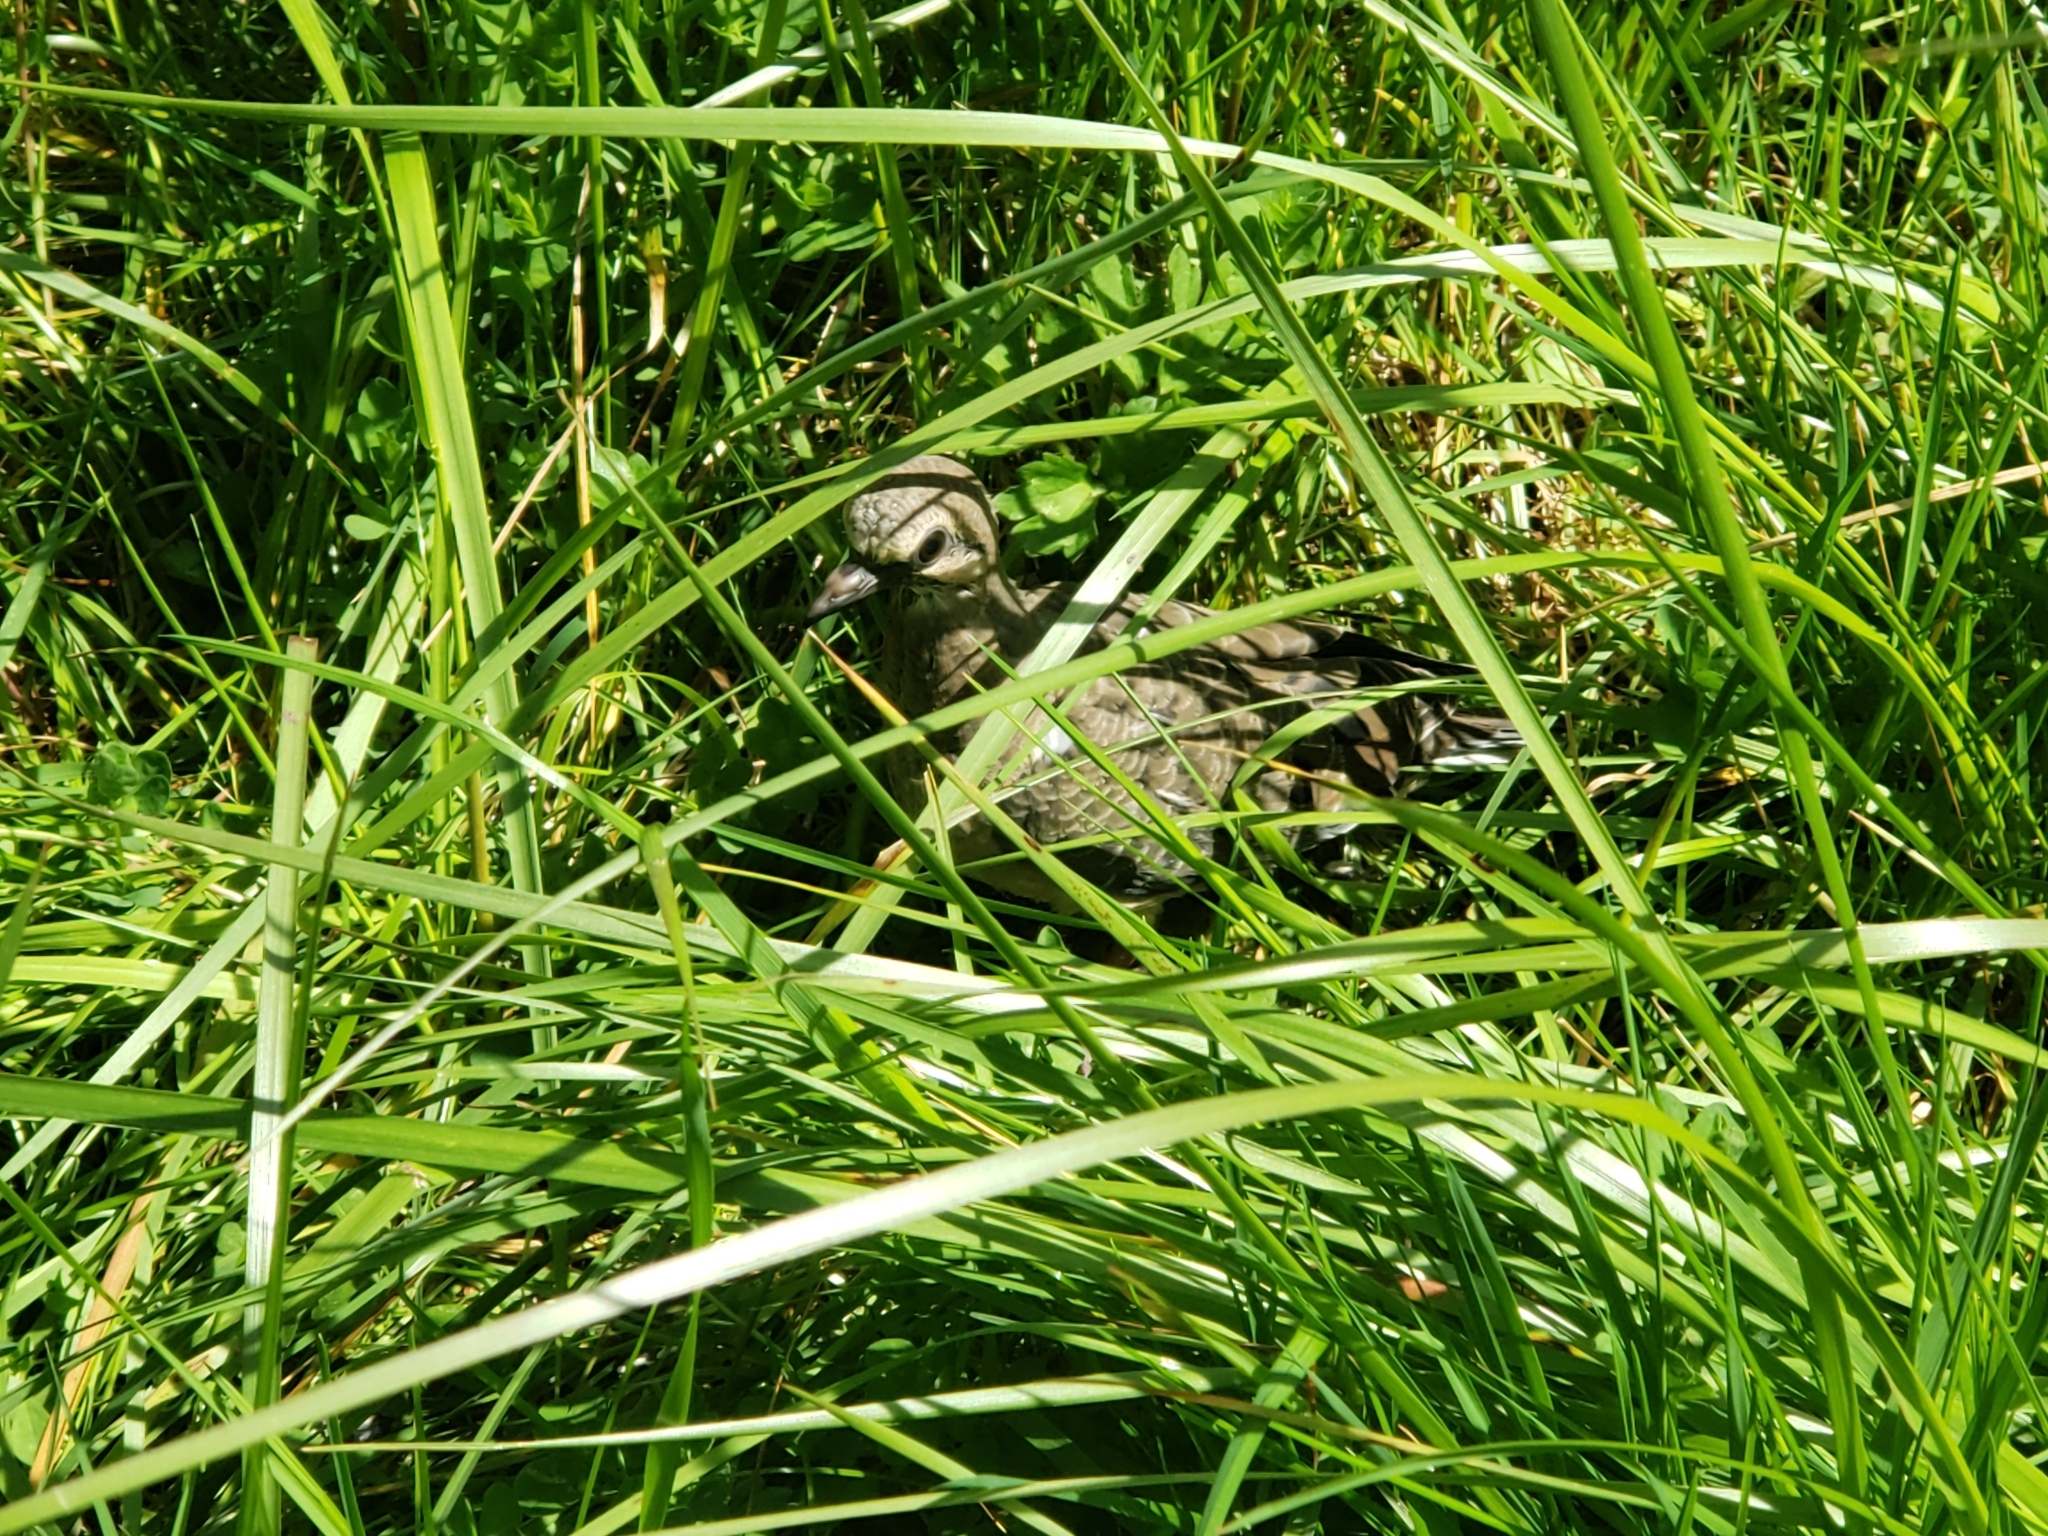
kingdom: Animalia
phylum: Chordata
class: Aves
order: Columbiformes
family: Columbidae
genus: Zenaida
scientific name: Zenaida macroura
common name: Mourning dove
